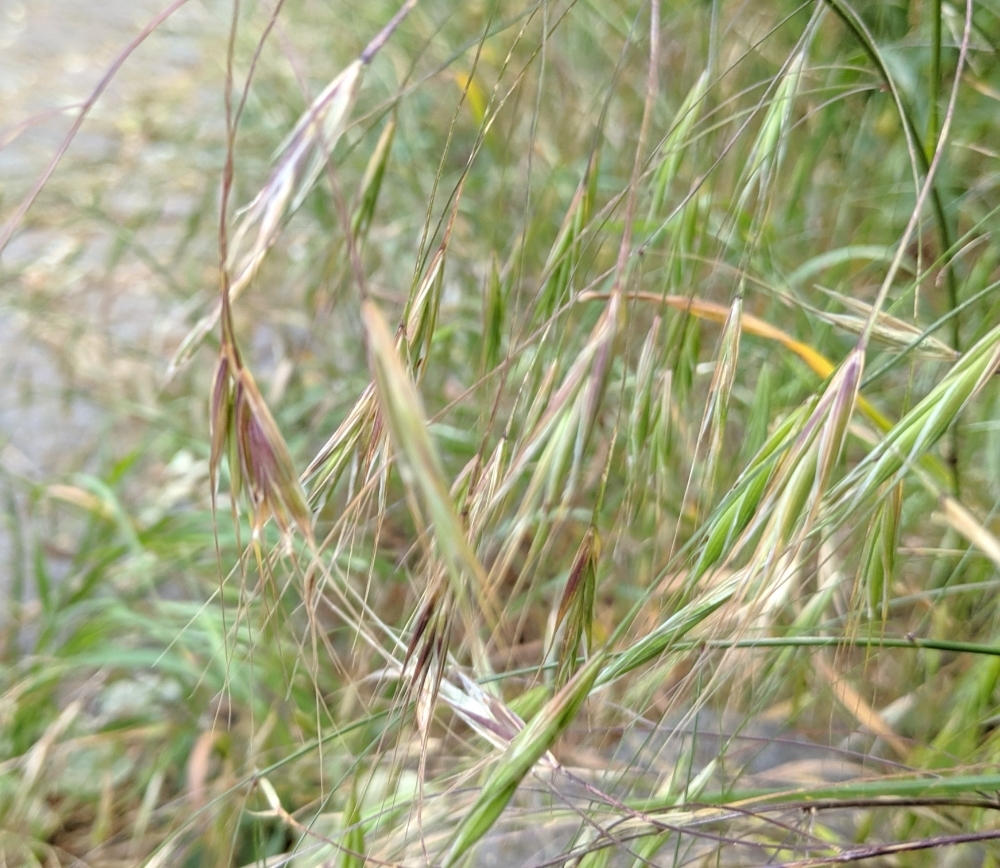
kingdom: Plantae
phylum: Tracheophyta
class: Liliopsida
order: Poales
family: Poaceae
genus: Bromus
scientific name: Bromus sterilis
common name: Poverty brome
